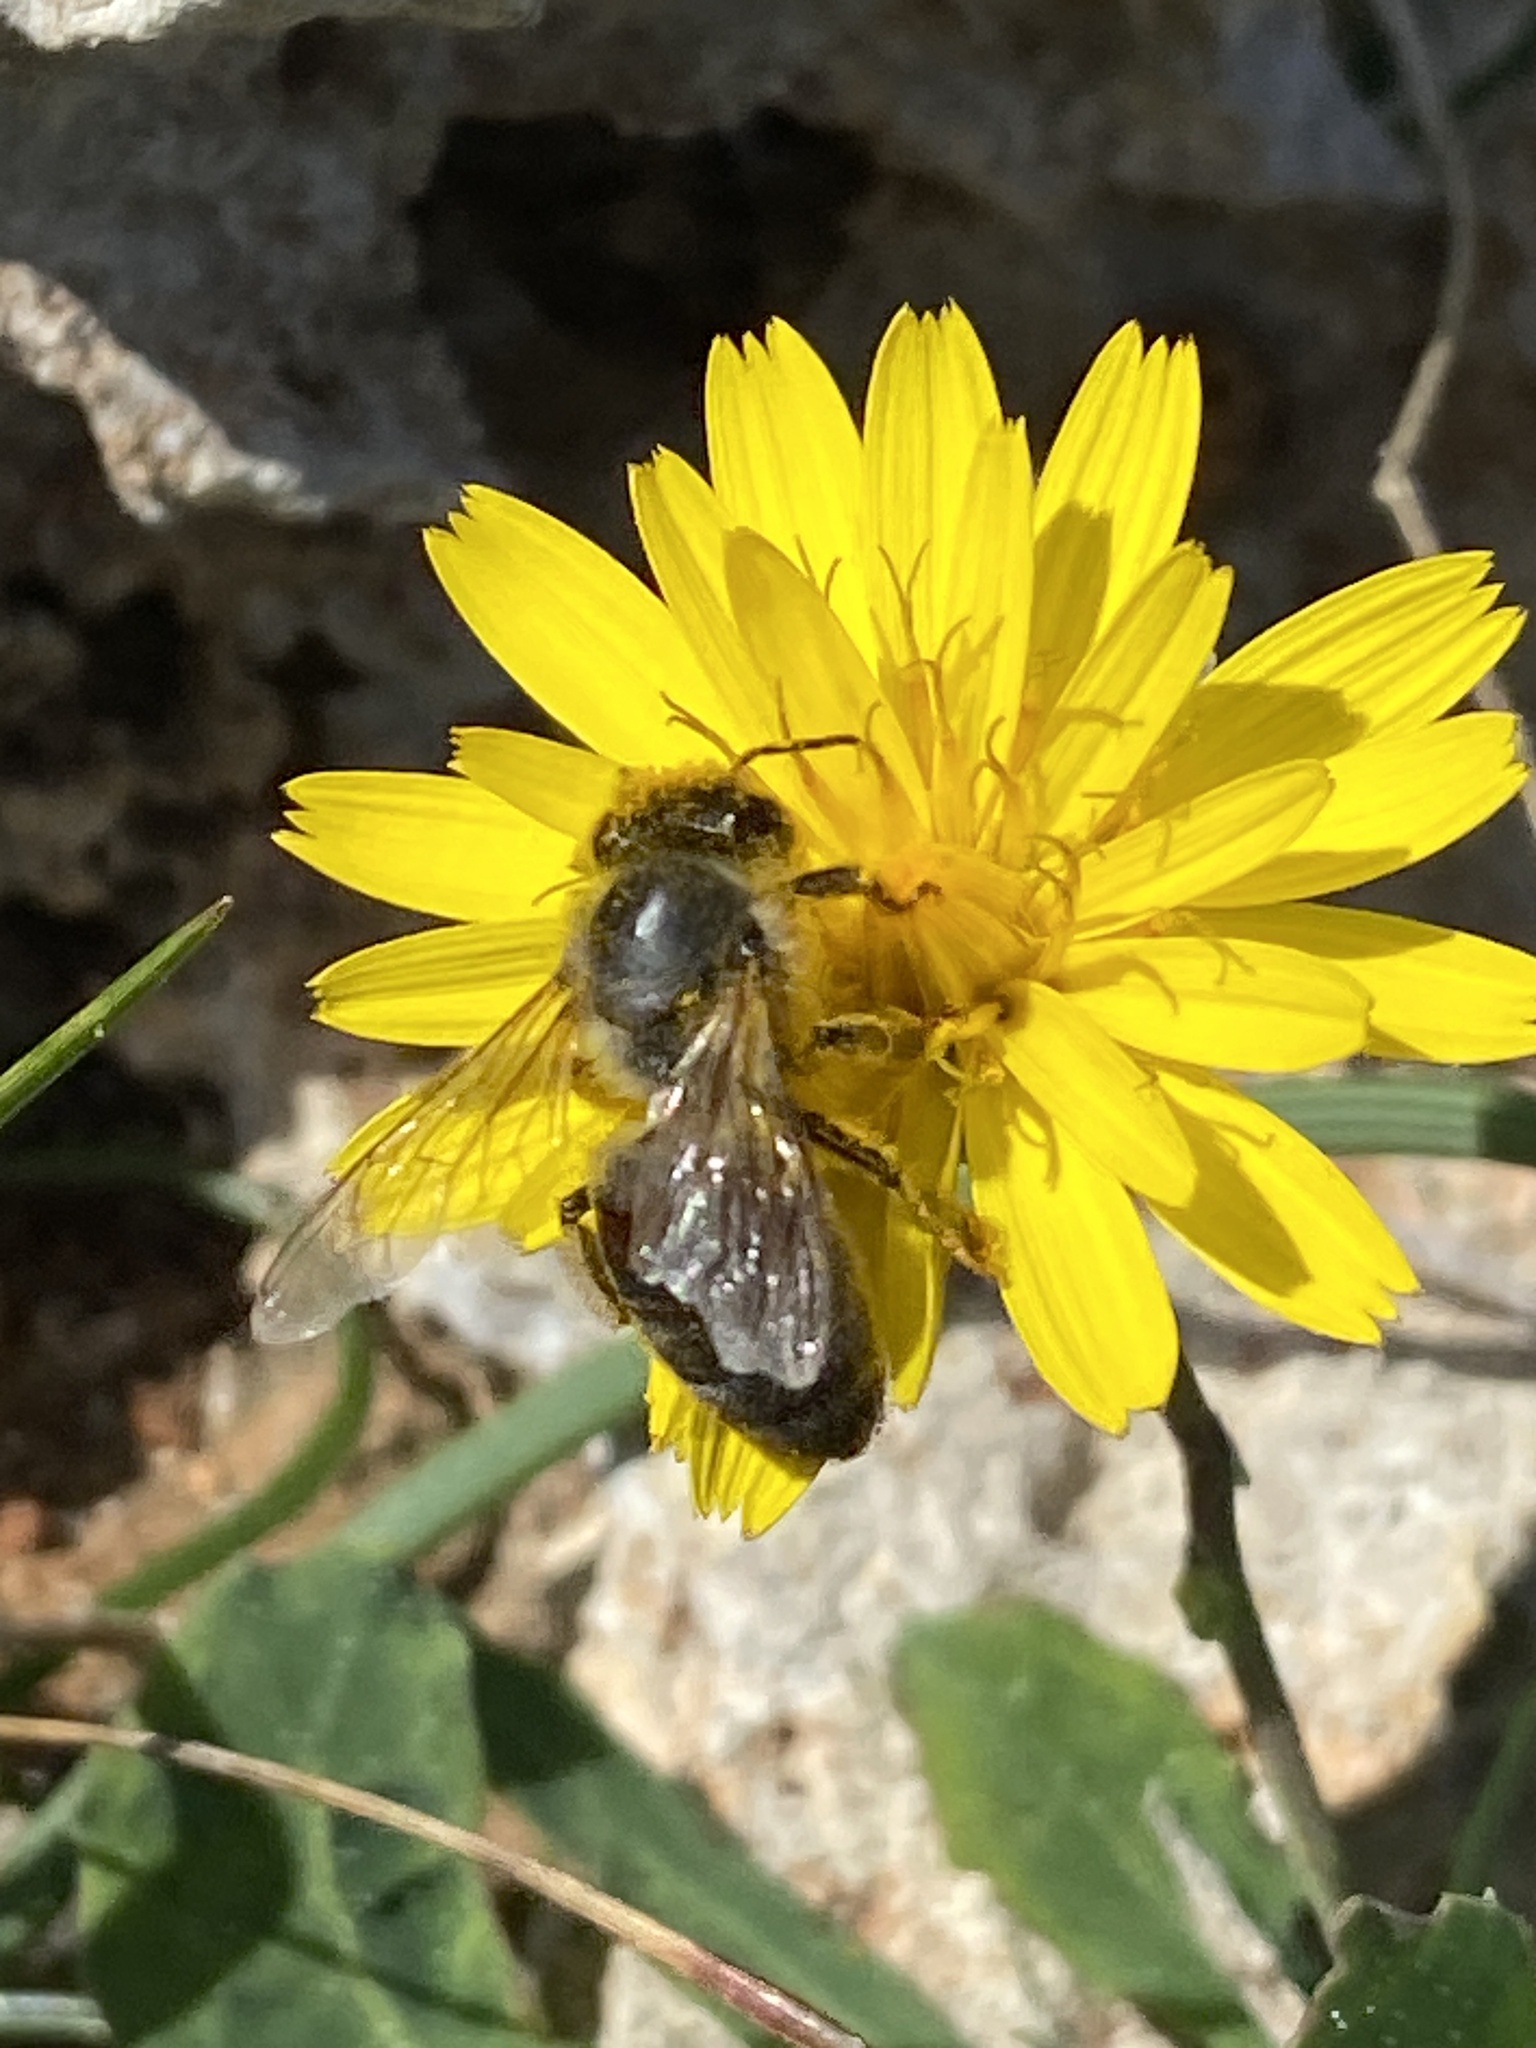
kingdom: Animalia
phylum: Arthropoda
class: Insecta
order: Hymenoptera
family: Apidae
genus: Apis
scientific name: Apis mellifera
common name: Honey bee
